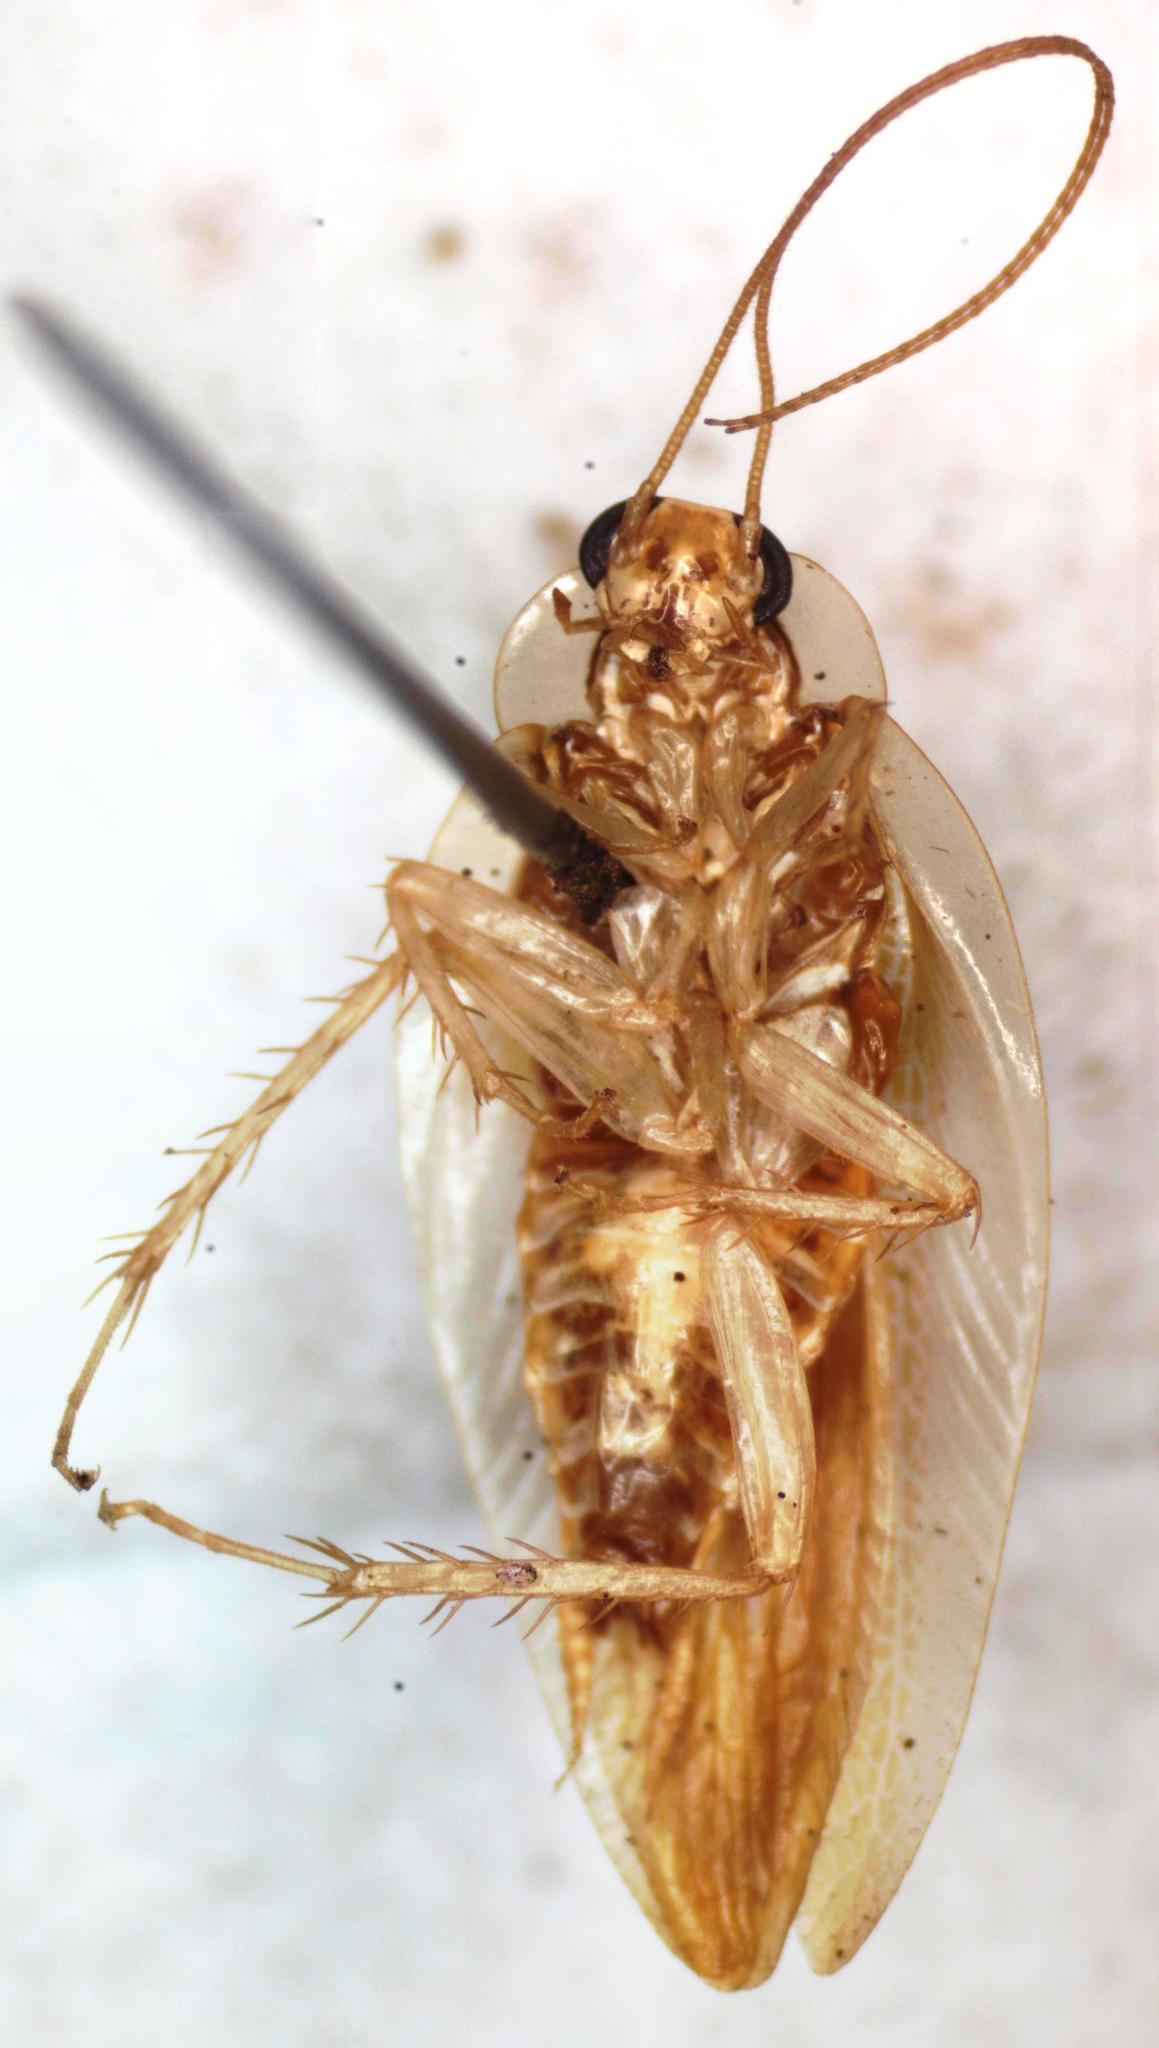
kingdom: Animalia
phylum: Arthropoda
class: Insecta
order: Blattodea
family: Ectobiidae
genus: Chorisoneura
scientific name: Chorisoneura panamae
